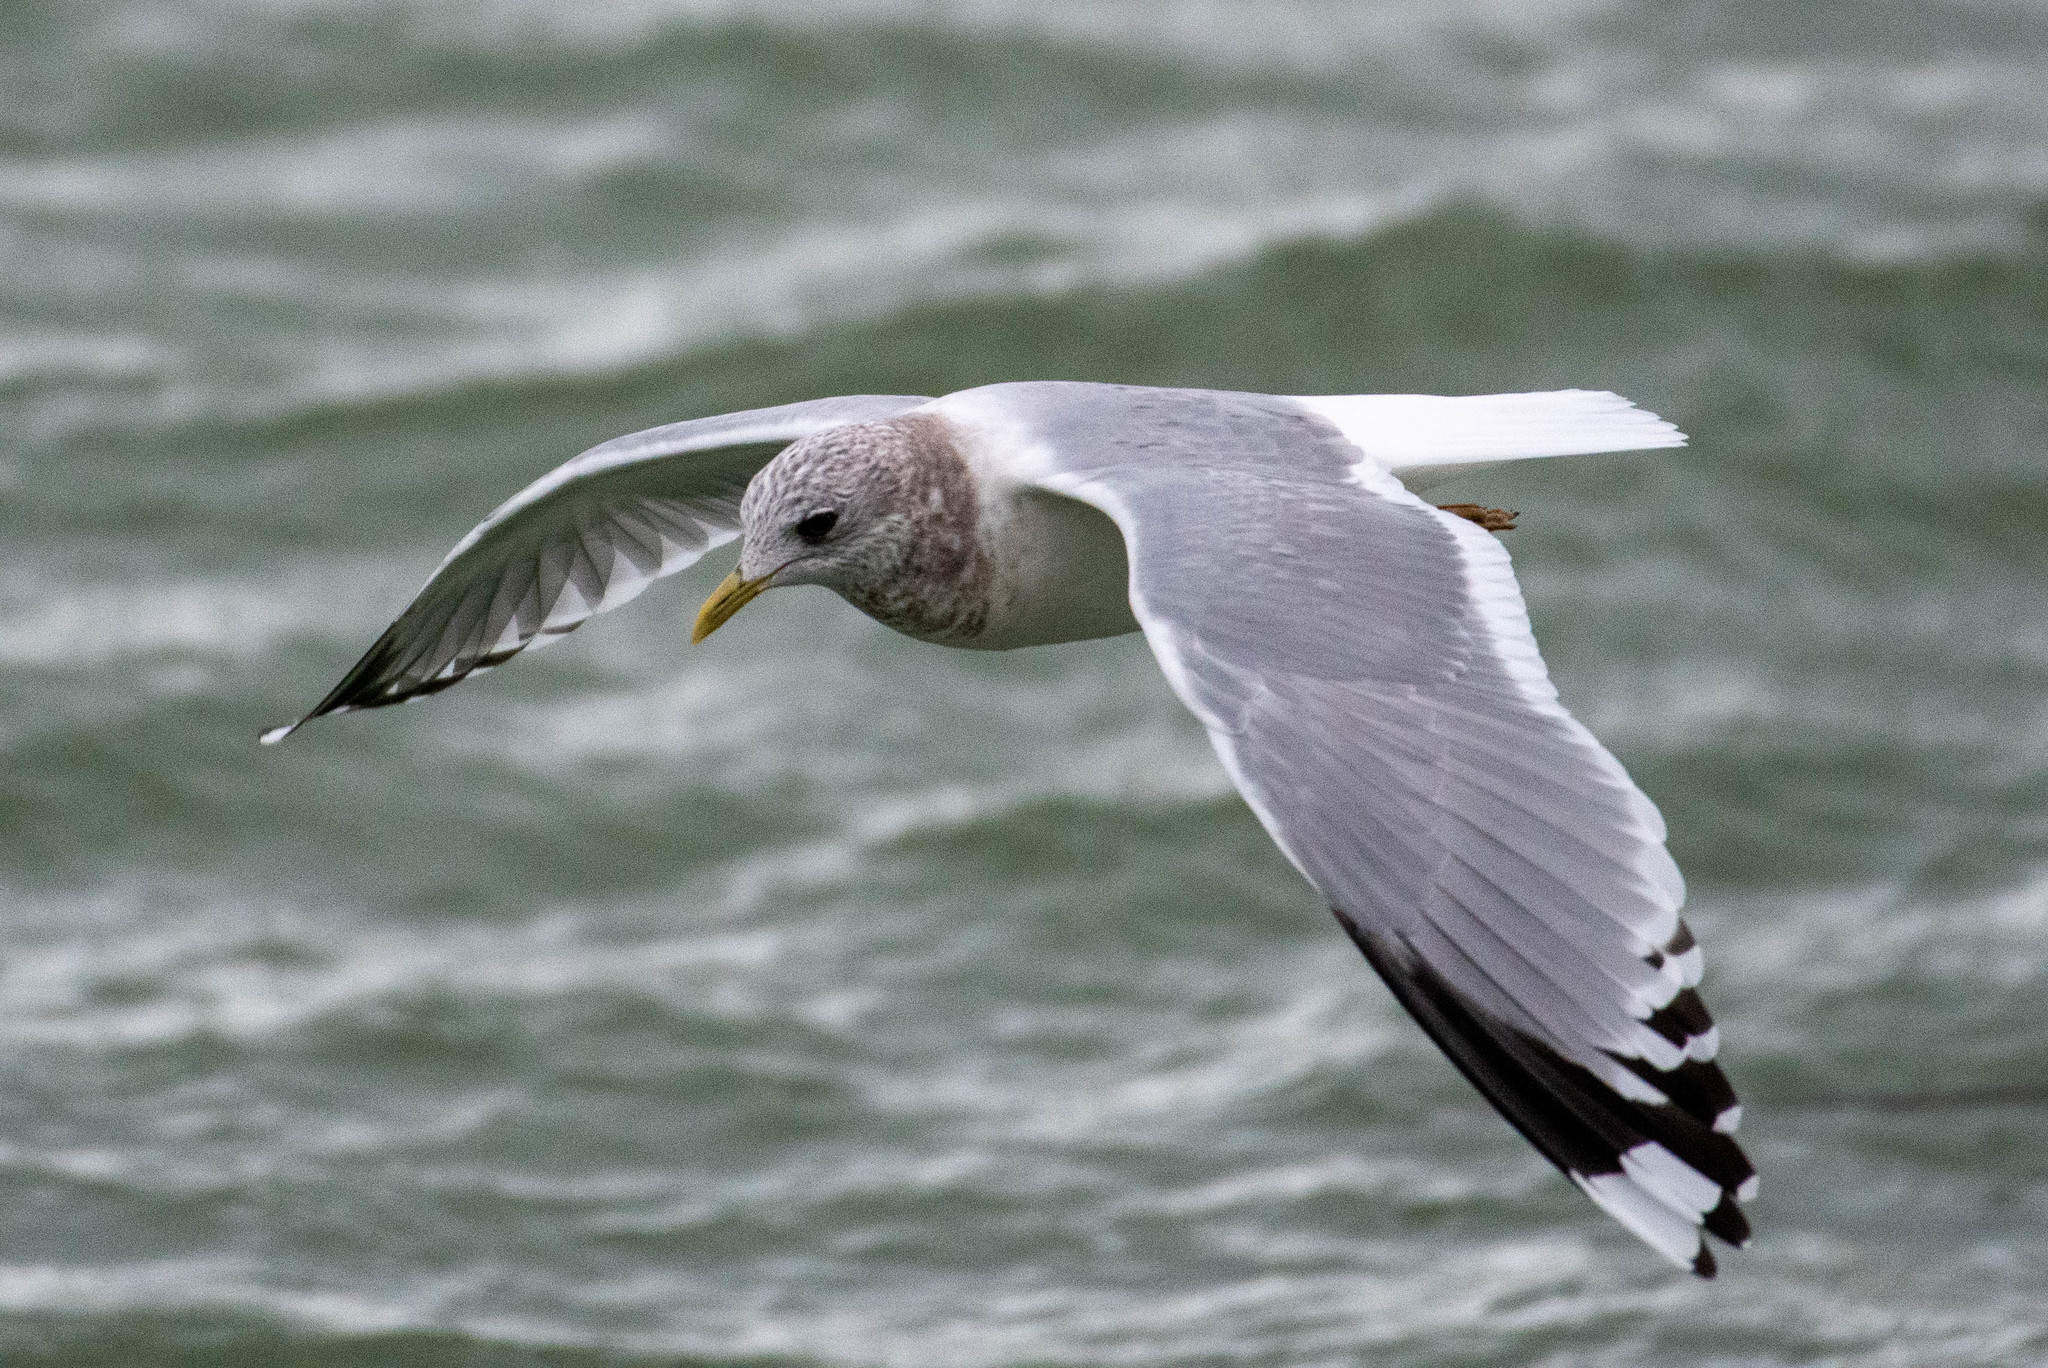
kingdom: Animalia
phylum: Chordata
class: Aves
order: Charadriiformes
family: Laridae
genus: Larus
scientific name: Larus brachyrhynchus
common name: Short-billed gull
